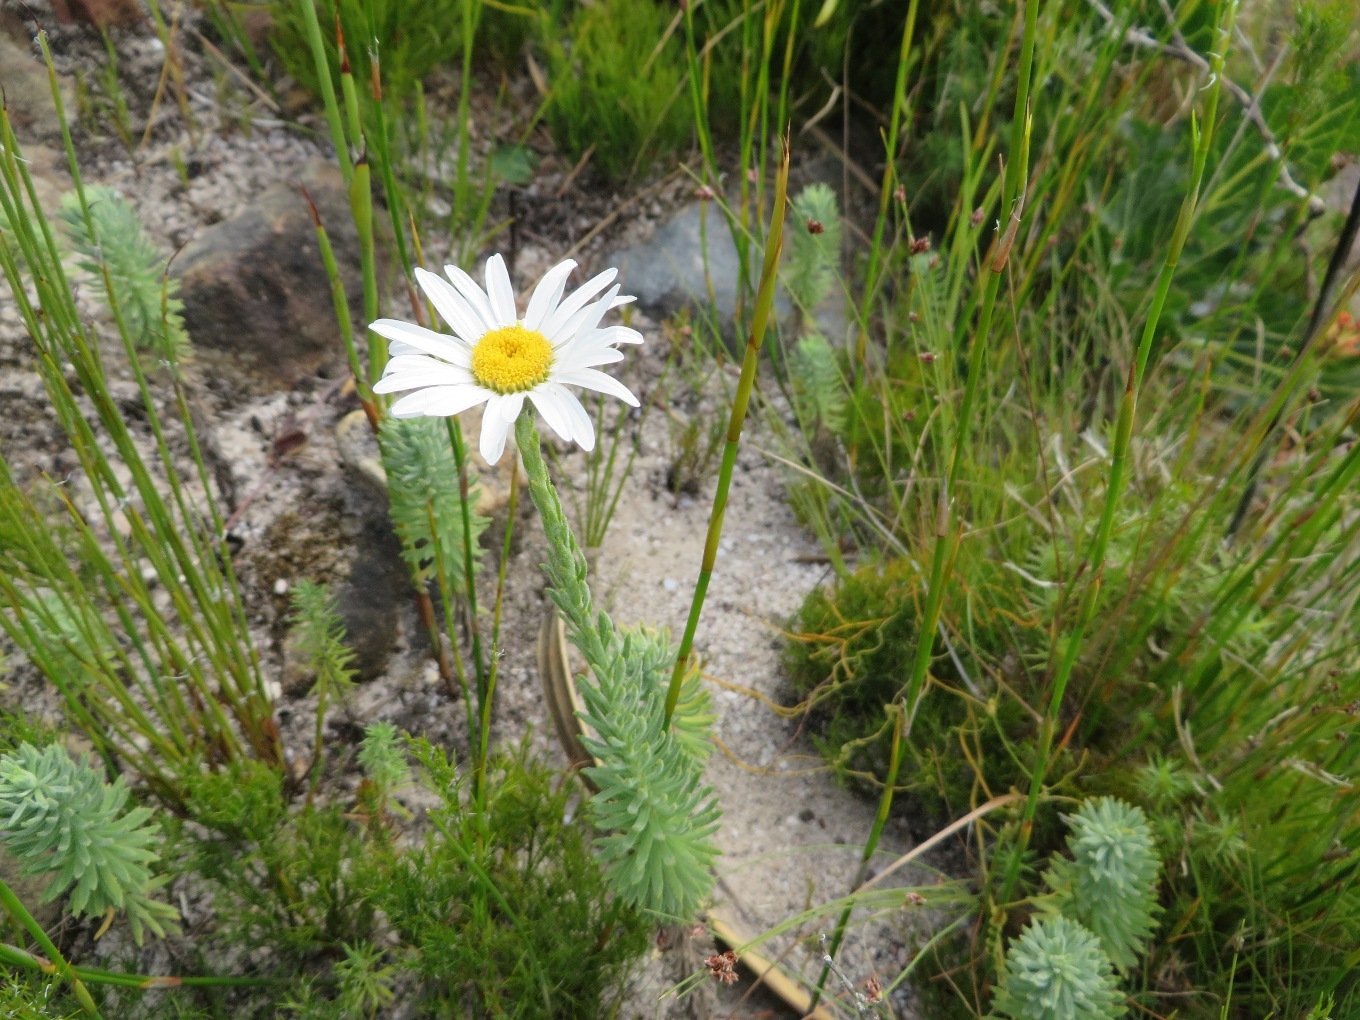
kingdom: Plantae
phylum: Tracheophyta
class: Magnoliopsida
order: Asterales
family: Asteraceae
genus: Osmitopsis
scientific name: Osmitopsis afra
